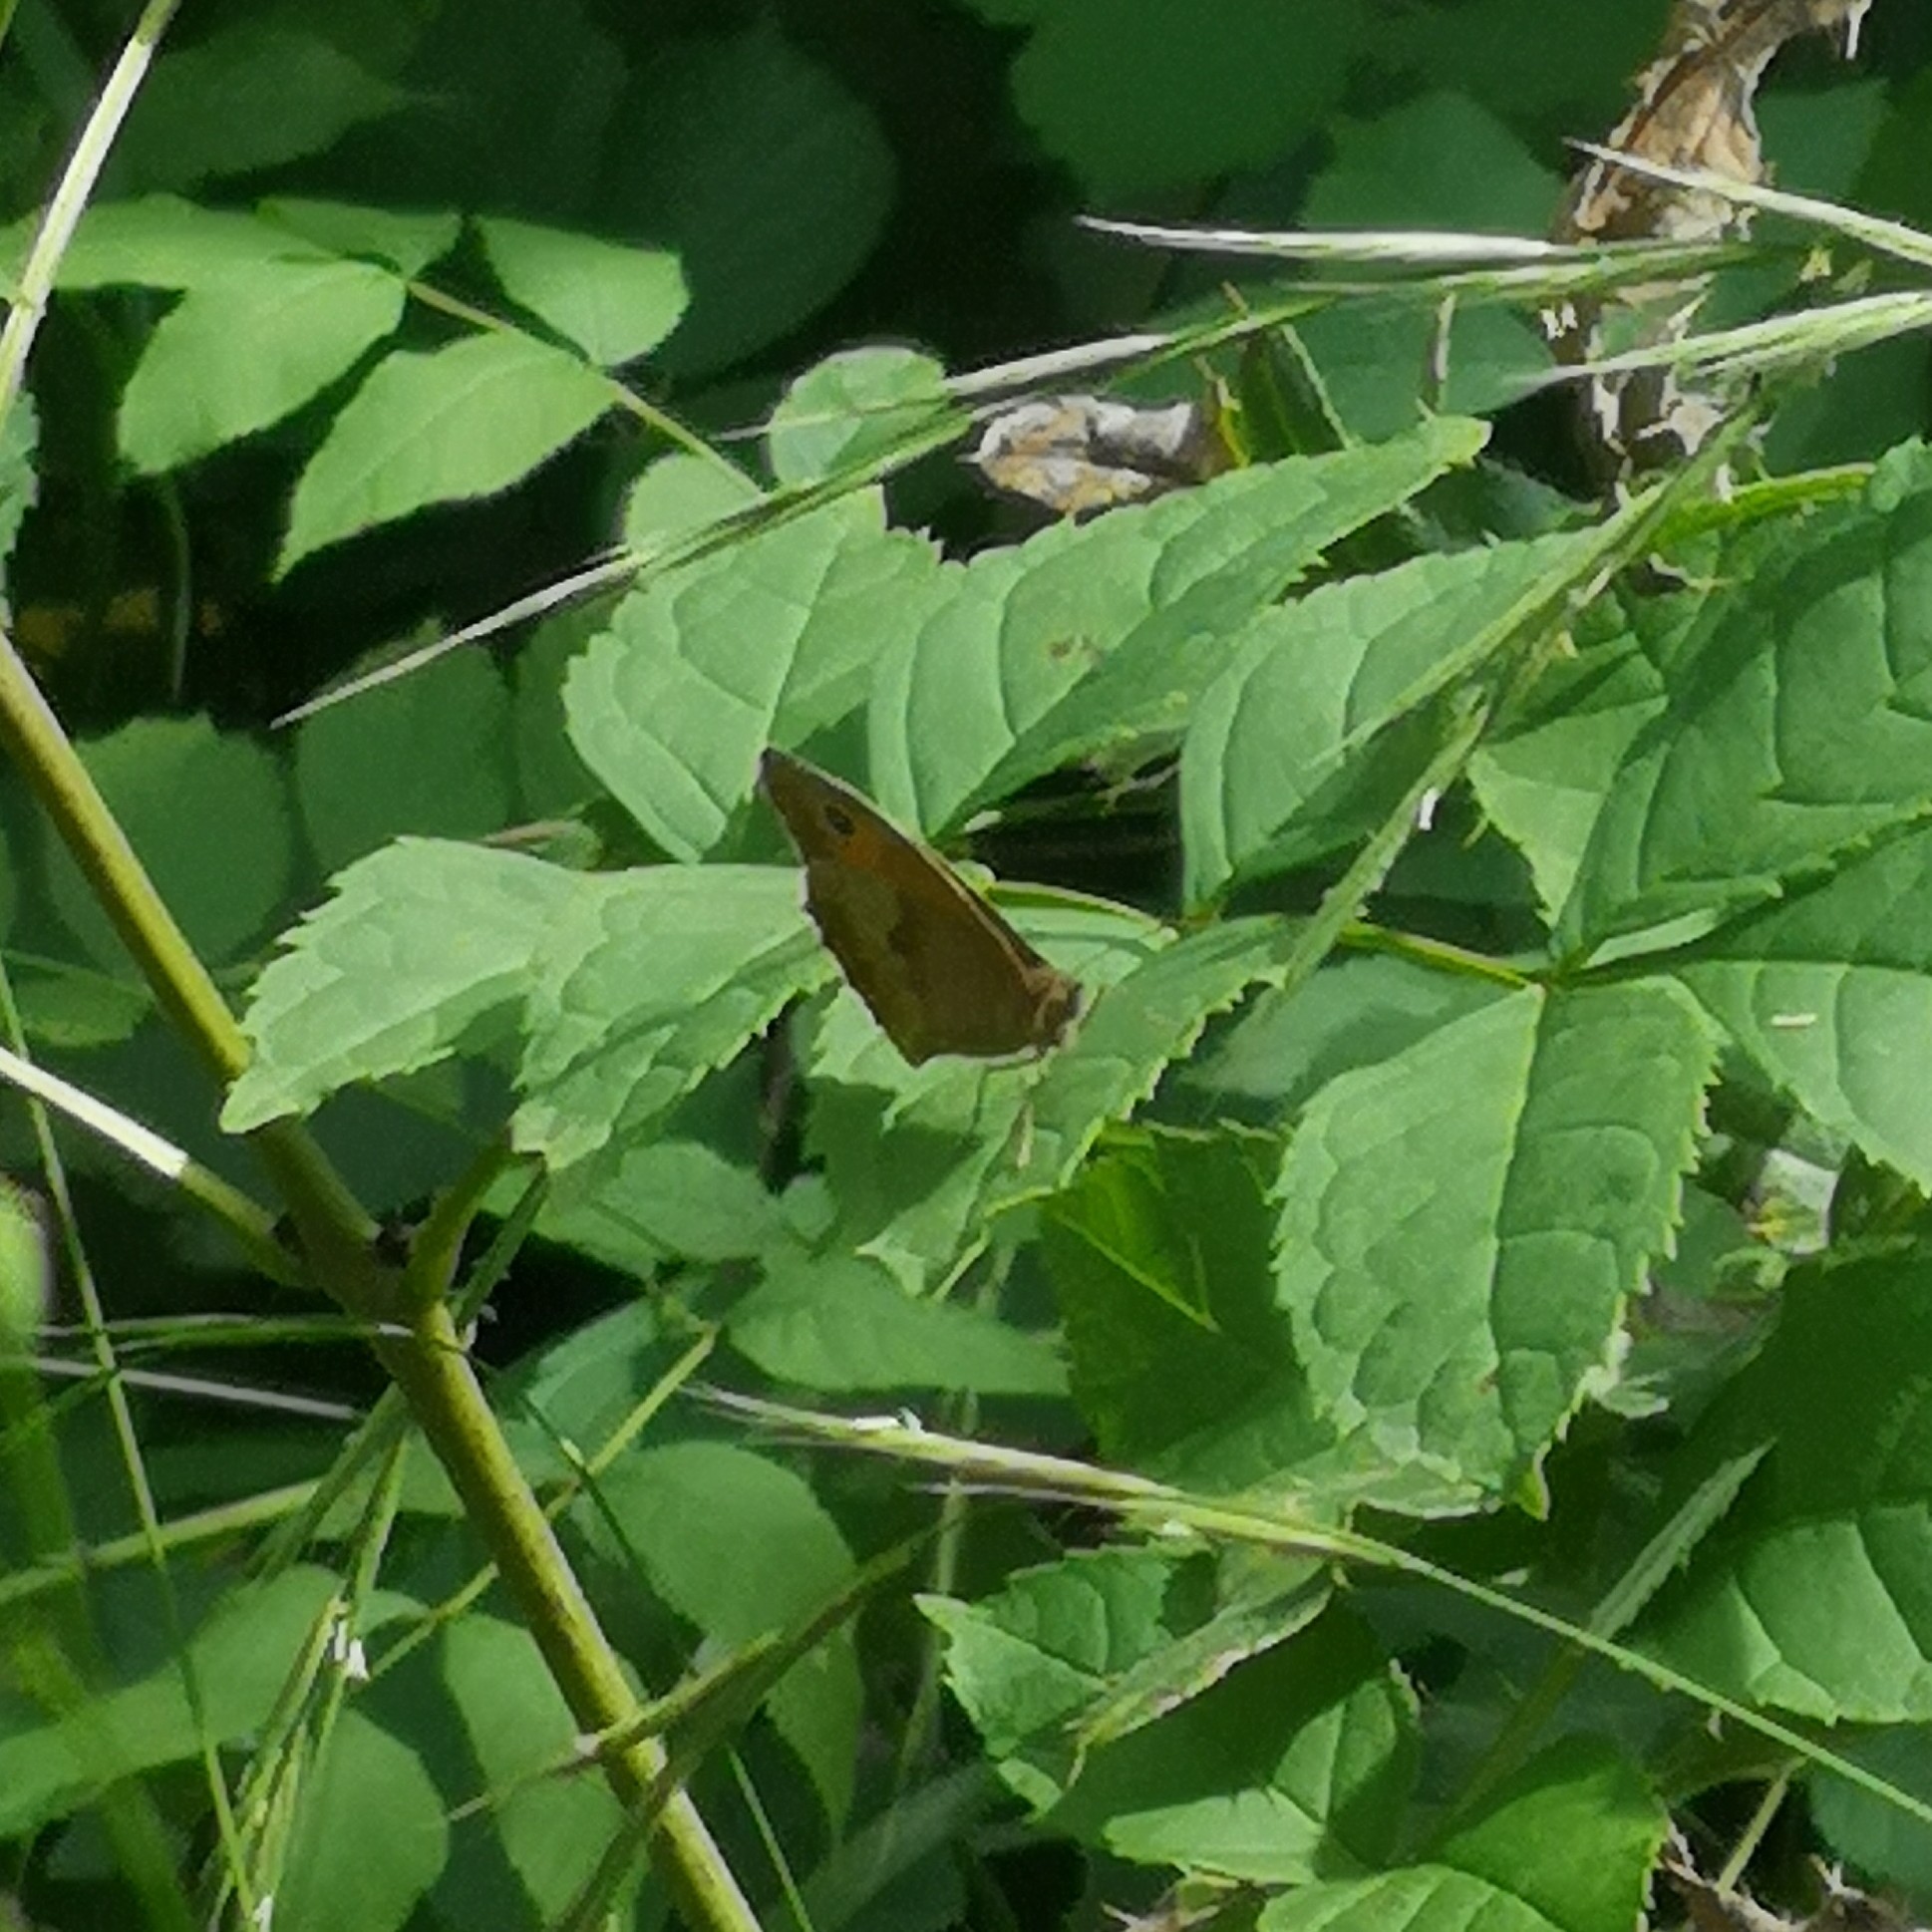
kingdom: Animalia
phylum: Arthropoda
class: Insecta
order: Lepidoptera
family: Nymphalidae
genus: Maniola
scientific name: Maniola jurtina
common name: Meadow brown
